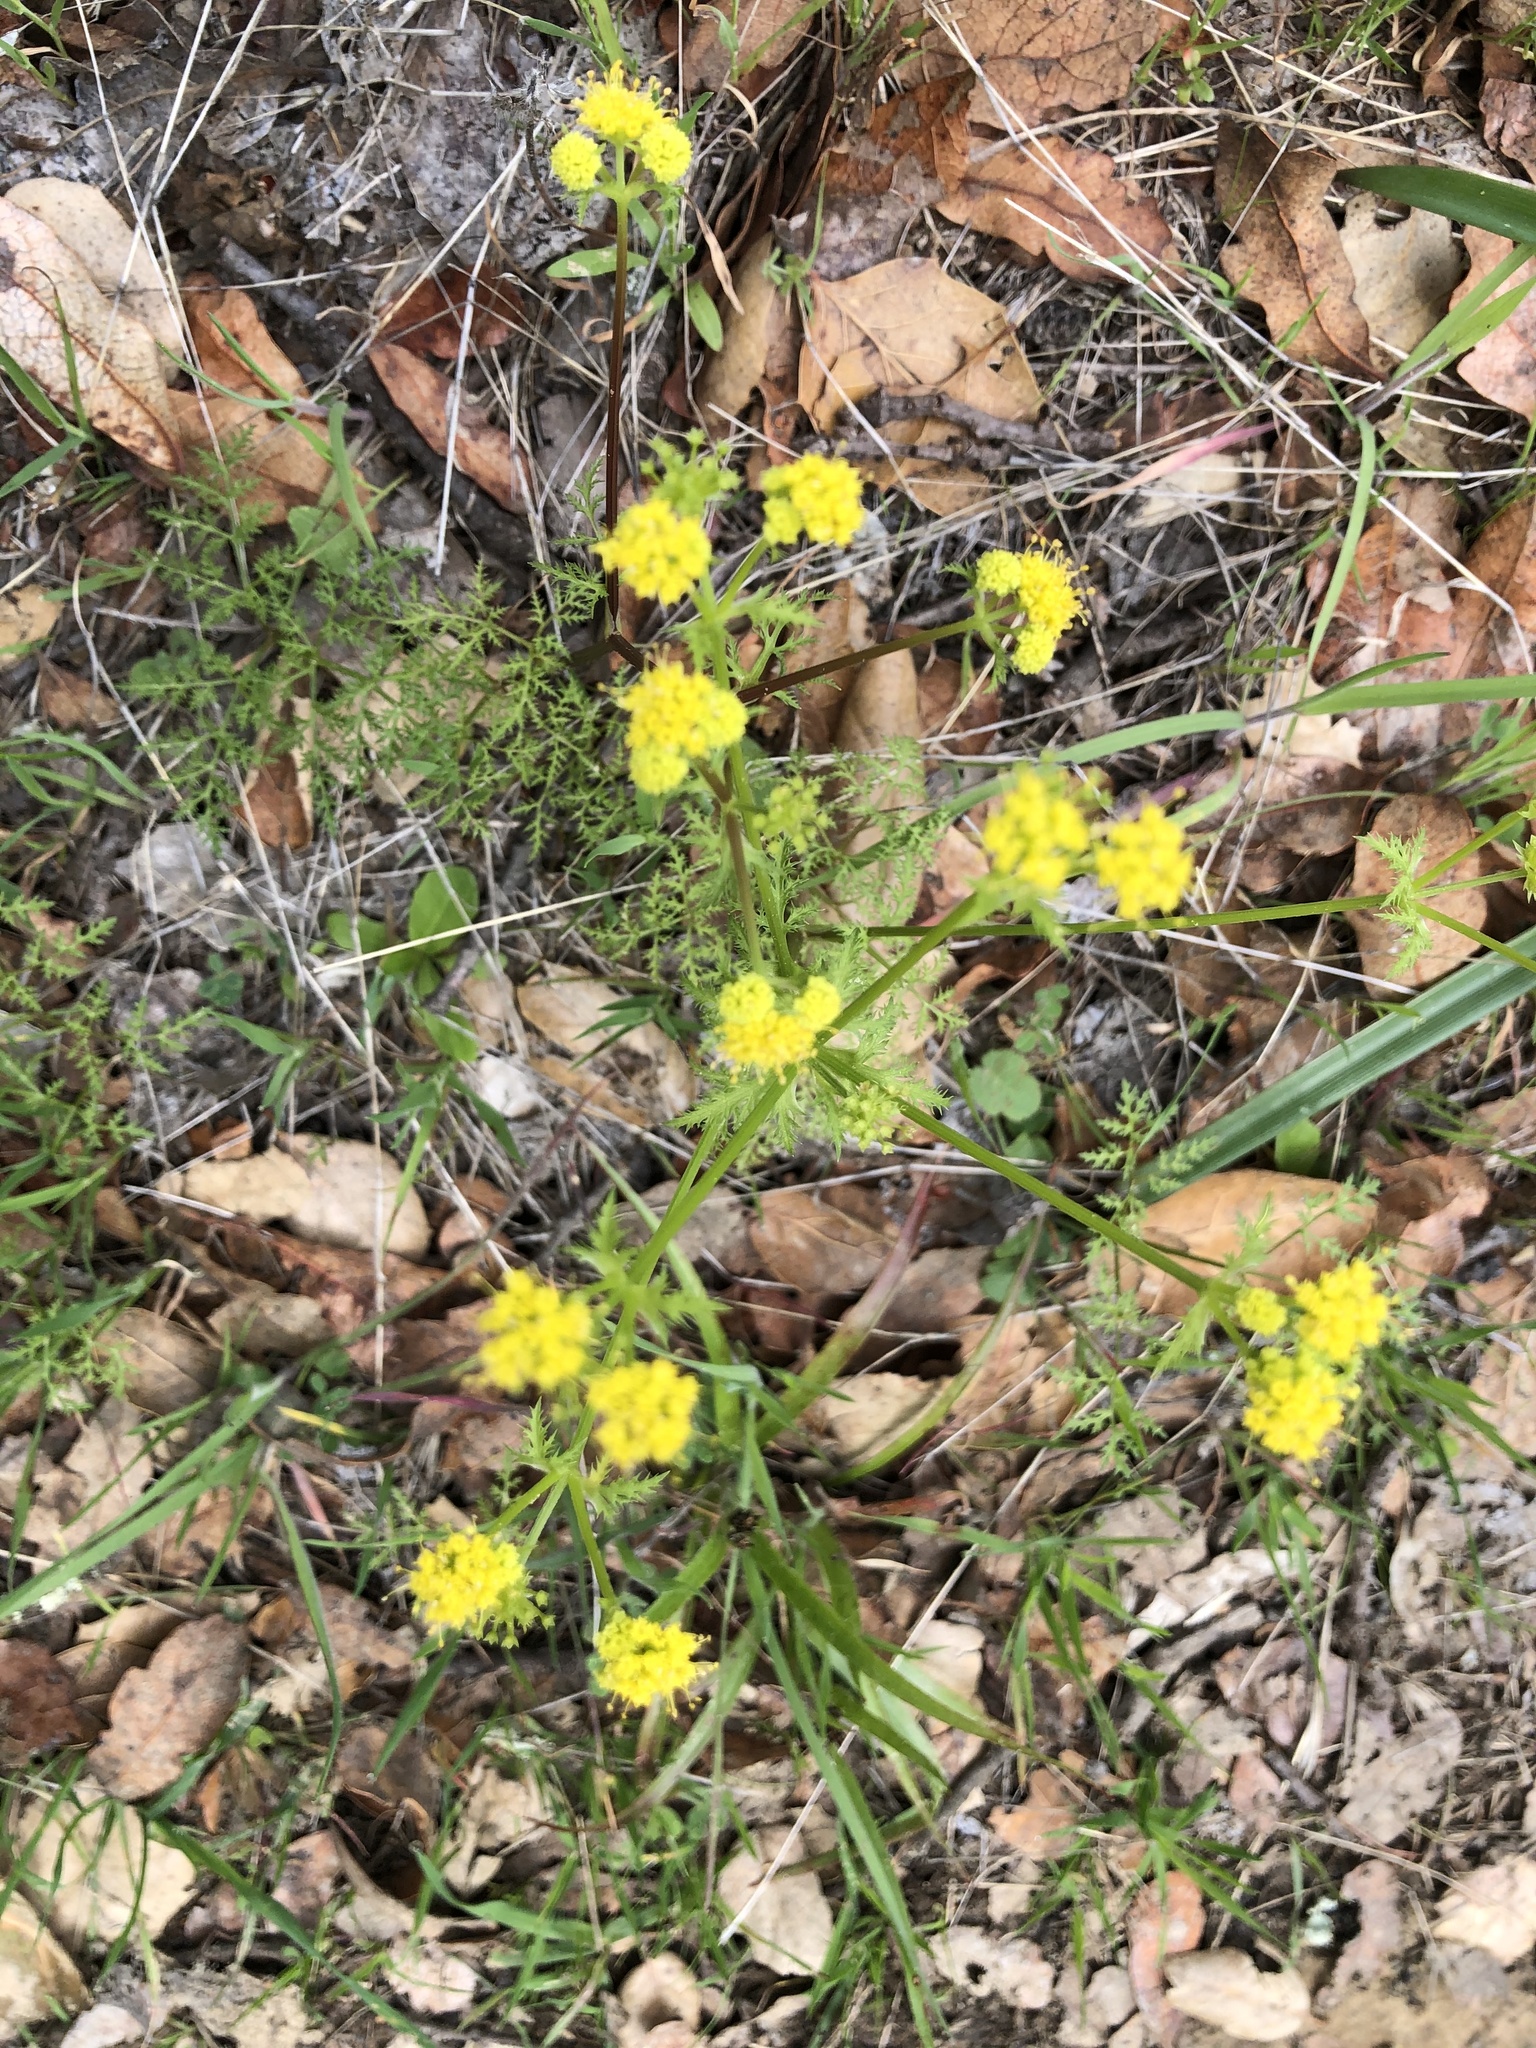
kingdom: Plantae
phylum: Tracheophyta
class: Magnoliopsida
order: Apiales
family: Apiaceae
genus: Sanicula
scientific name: Sanicula tuberosa
